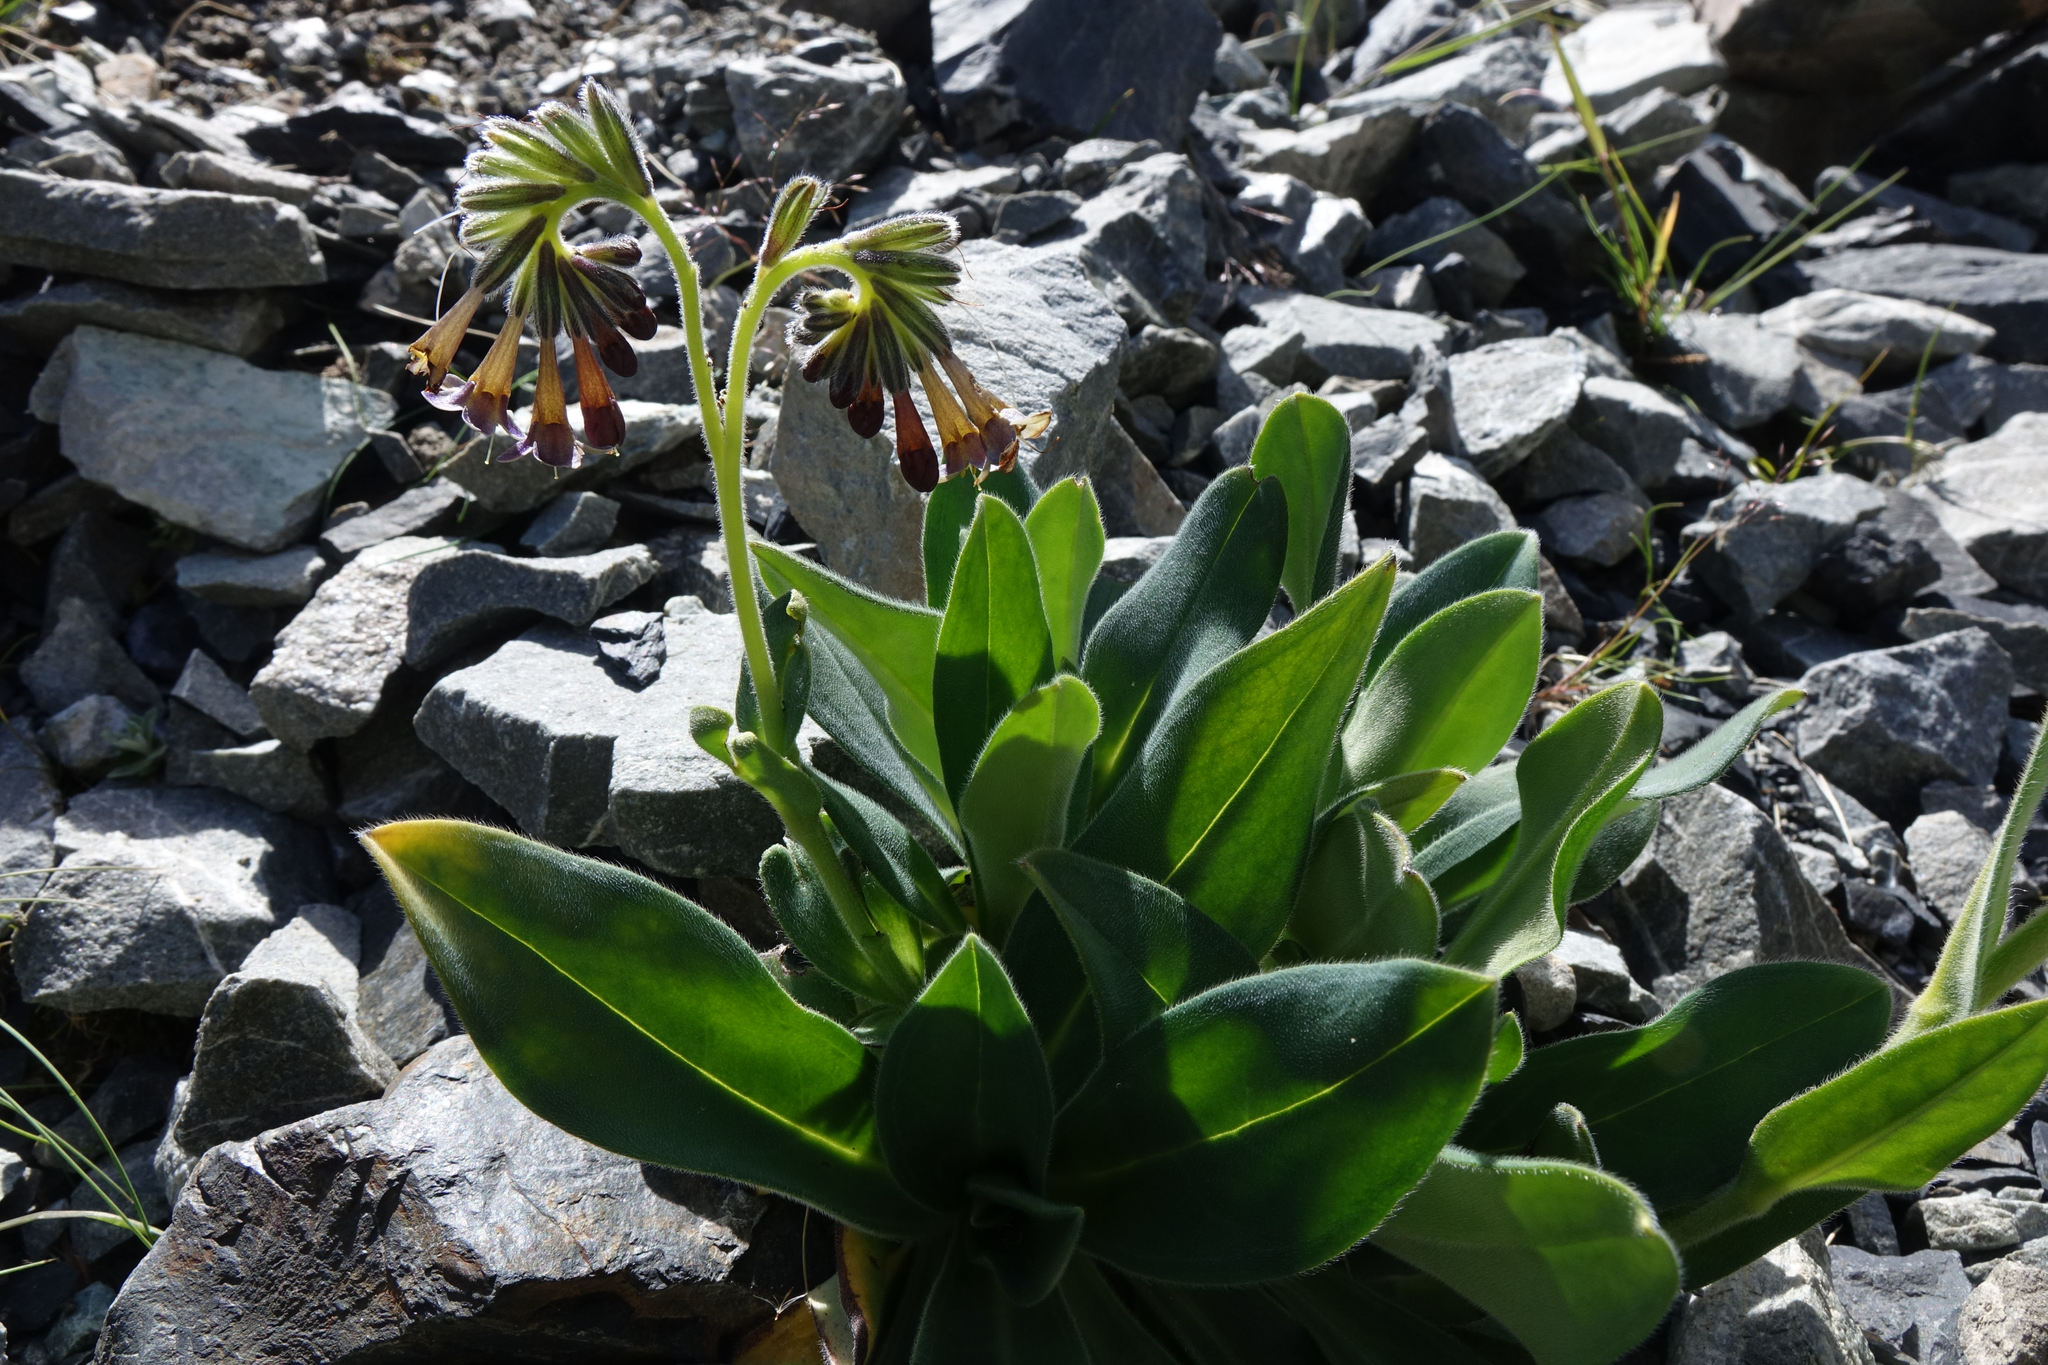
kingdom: Plantae
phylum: Tracheophyta
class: Magnoliopsida
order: Boraginales
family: Boraginaceae
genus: Myosotis
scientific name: Myosotis macrantha
